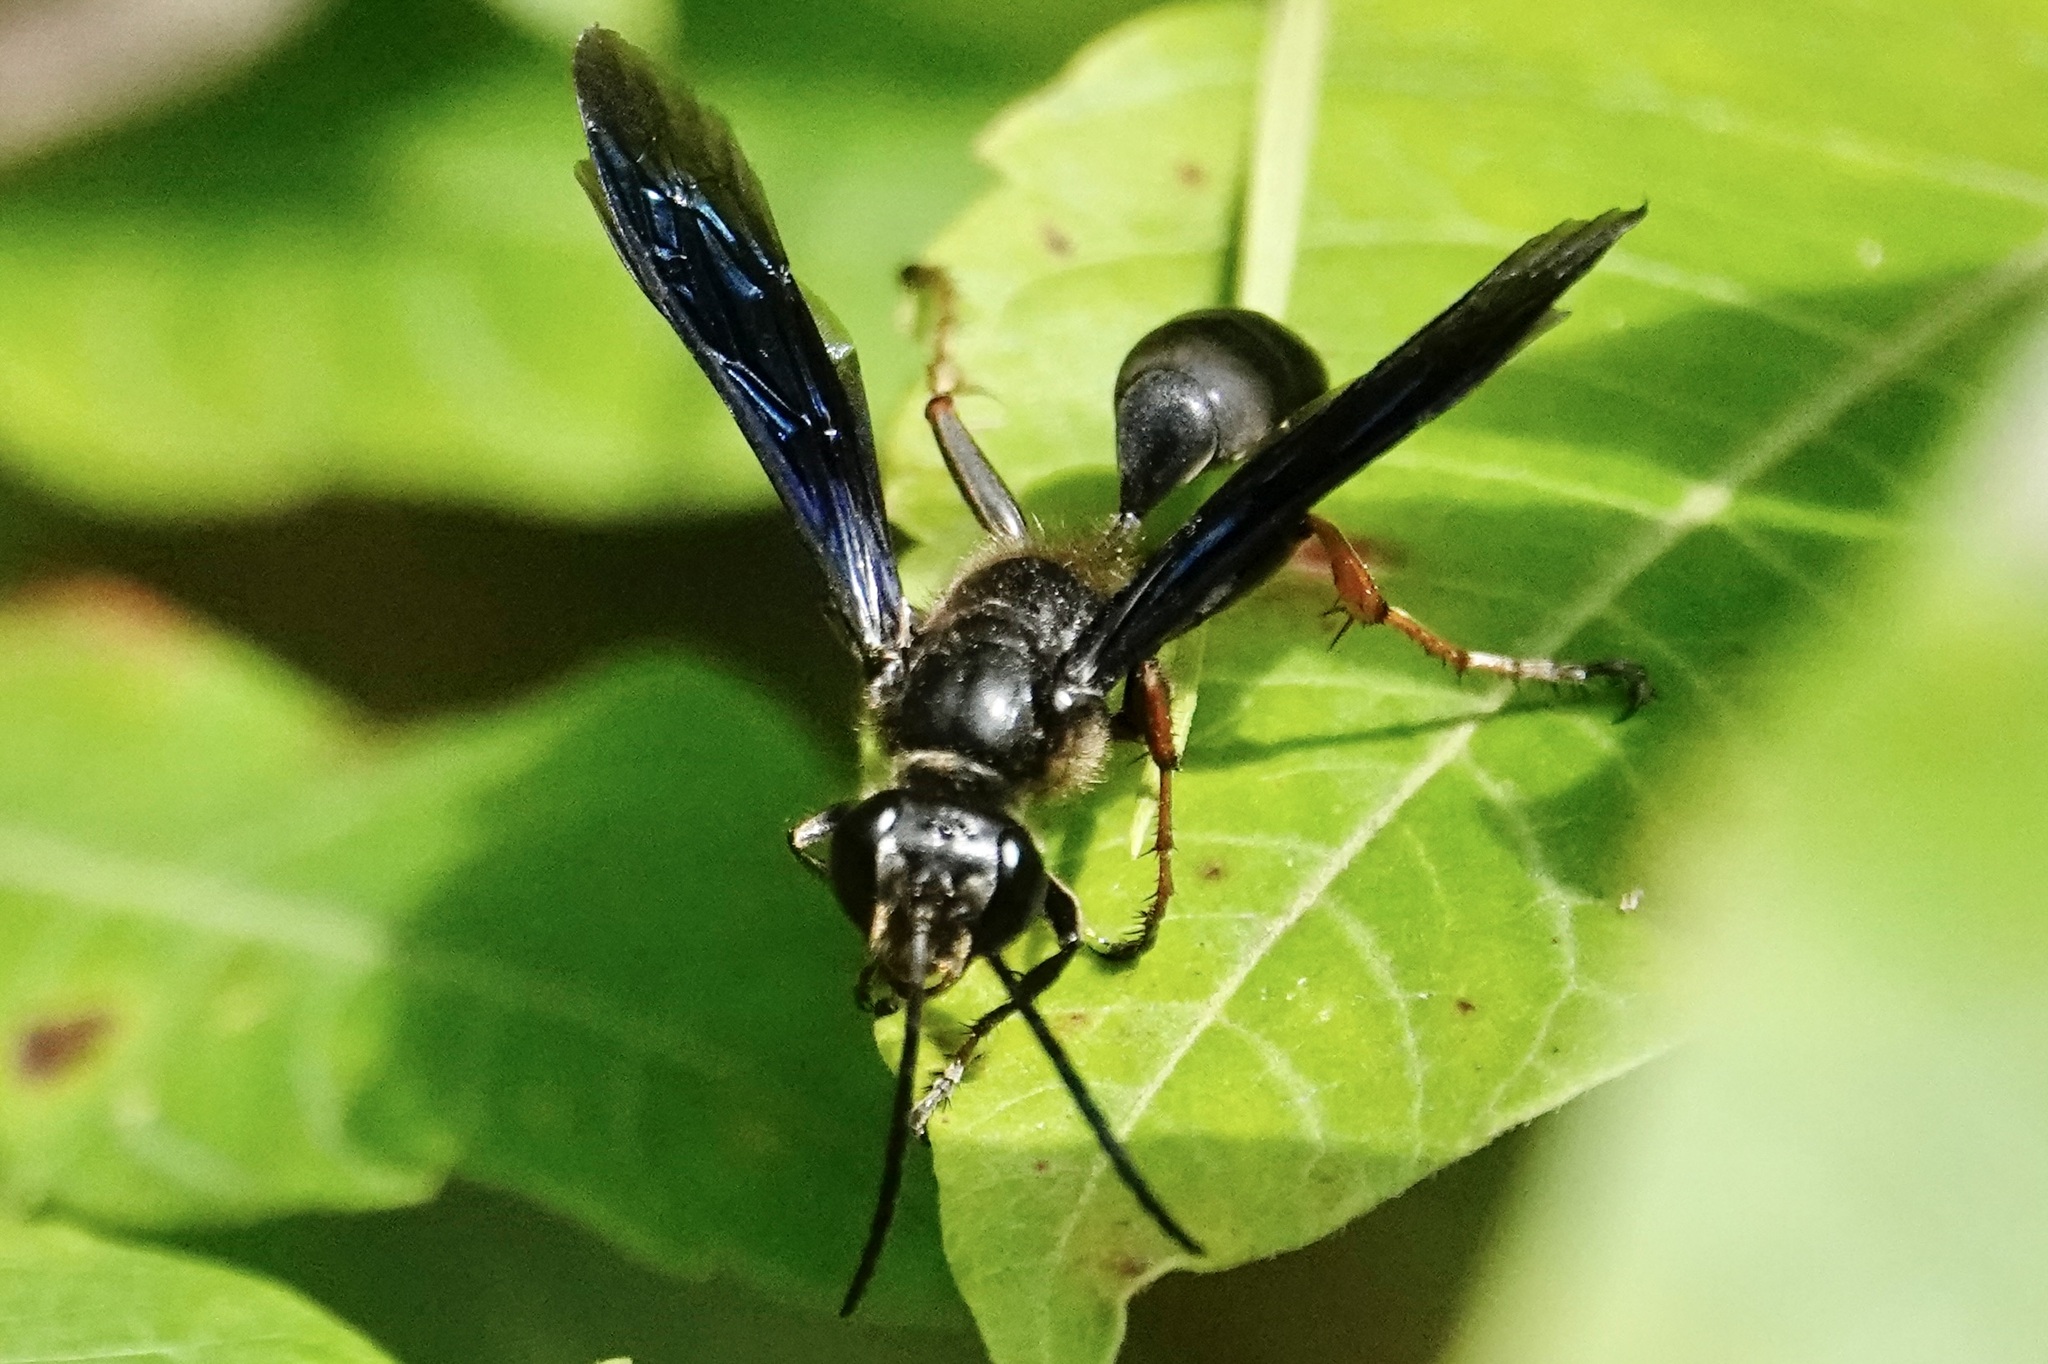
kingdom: Animalia
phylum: Arthropoda
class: Insecta
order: Hymenoptera
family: Sphecidae
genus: Isodontia
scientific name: Isodontia auripes
